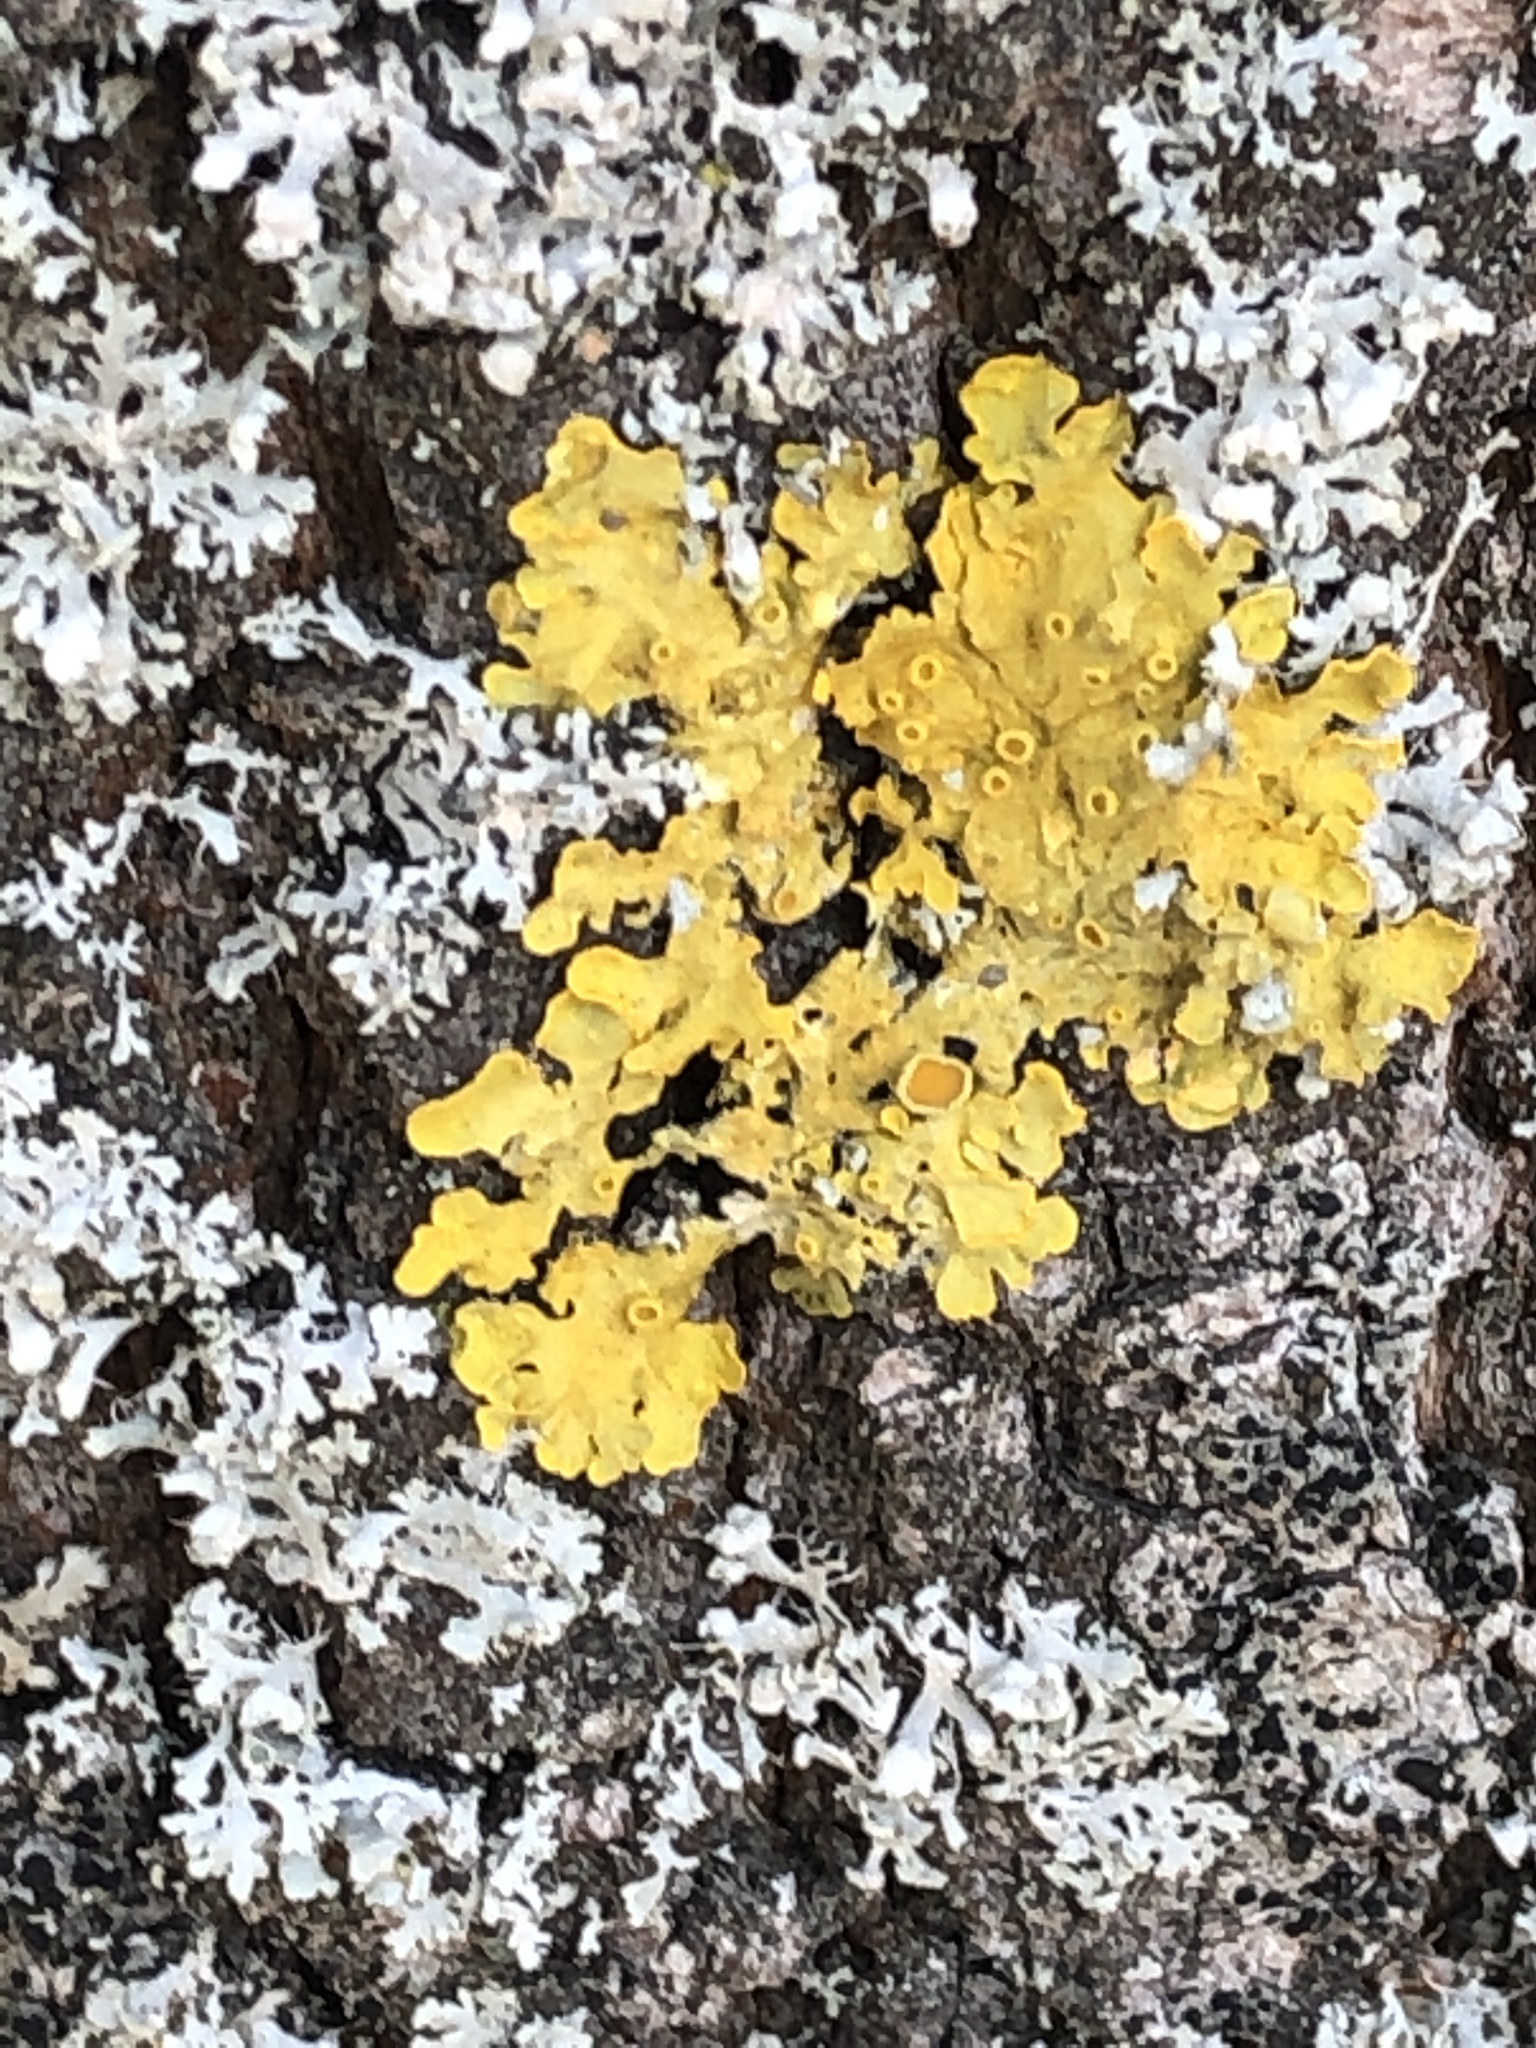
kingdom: Fungi
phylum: Ascomycota
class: Lecanoromycetes
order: Teloschistales
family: Teloschistaceae
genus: Xanthoria
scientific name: Xanthoria parietina
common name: Common orange lichen
